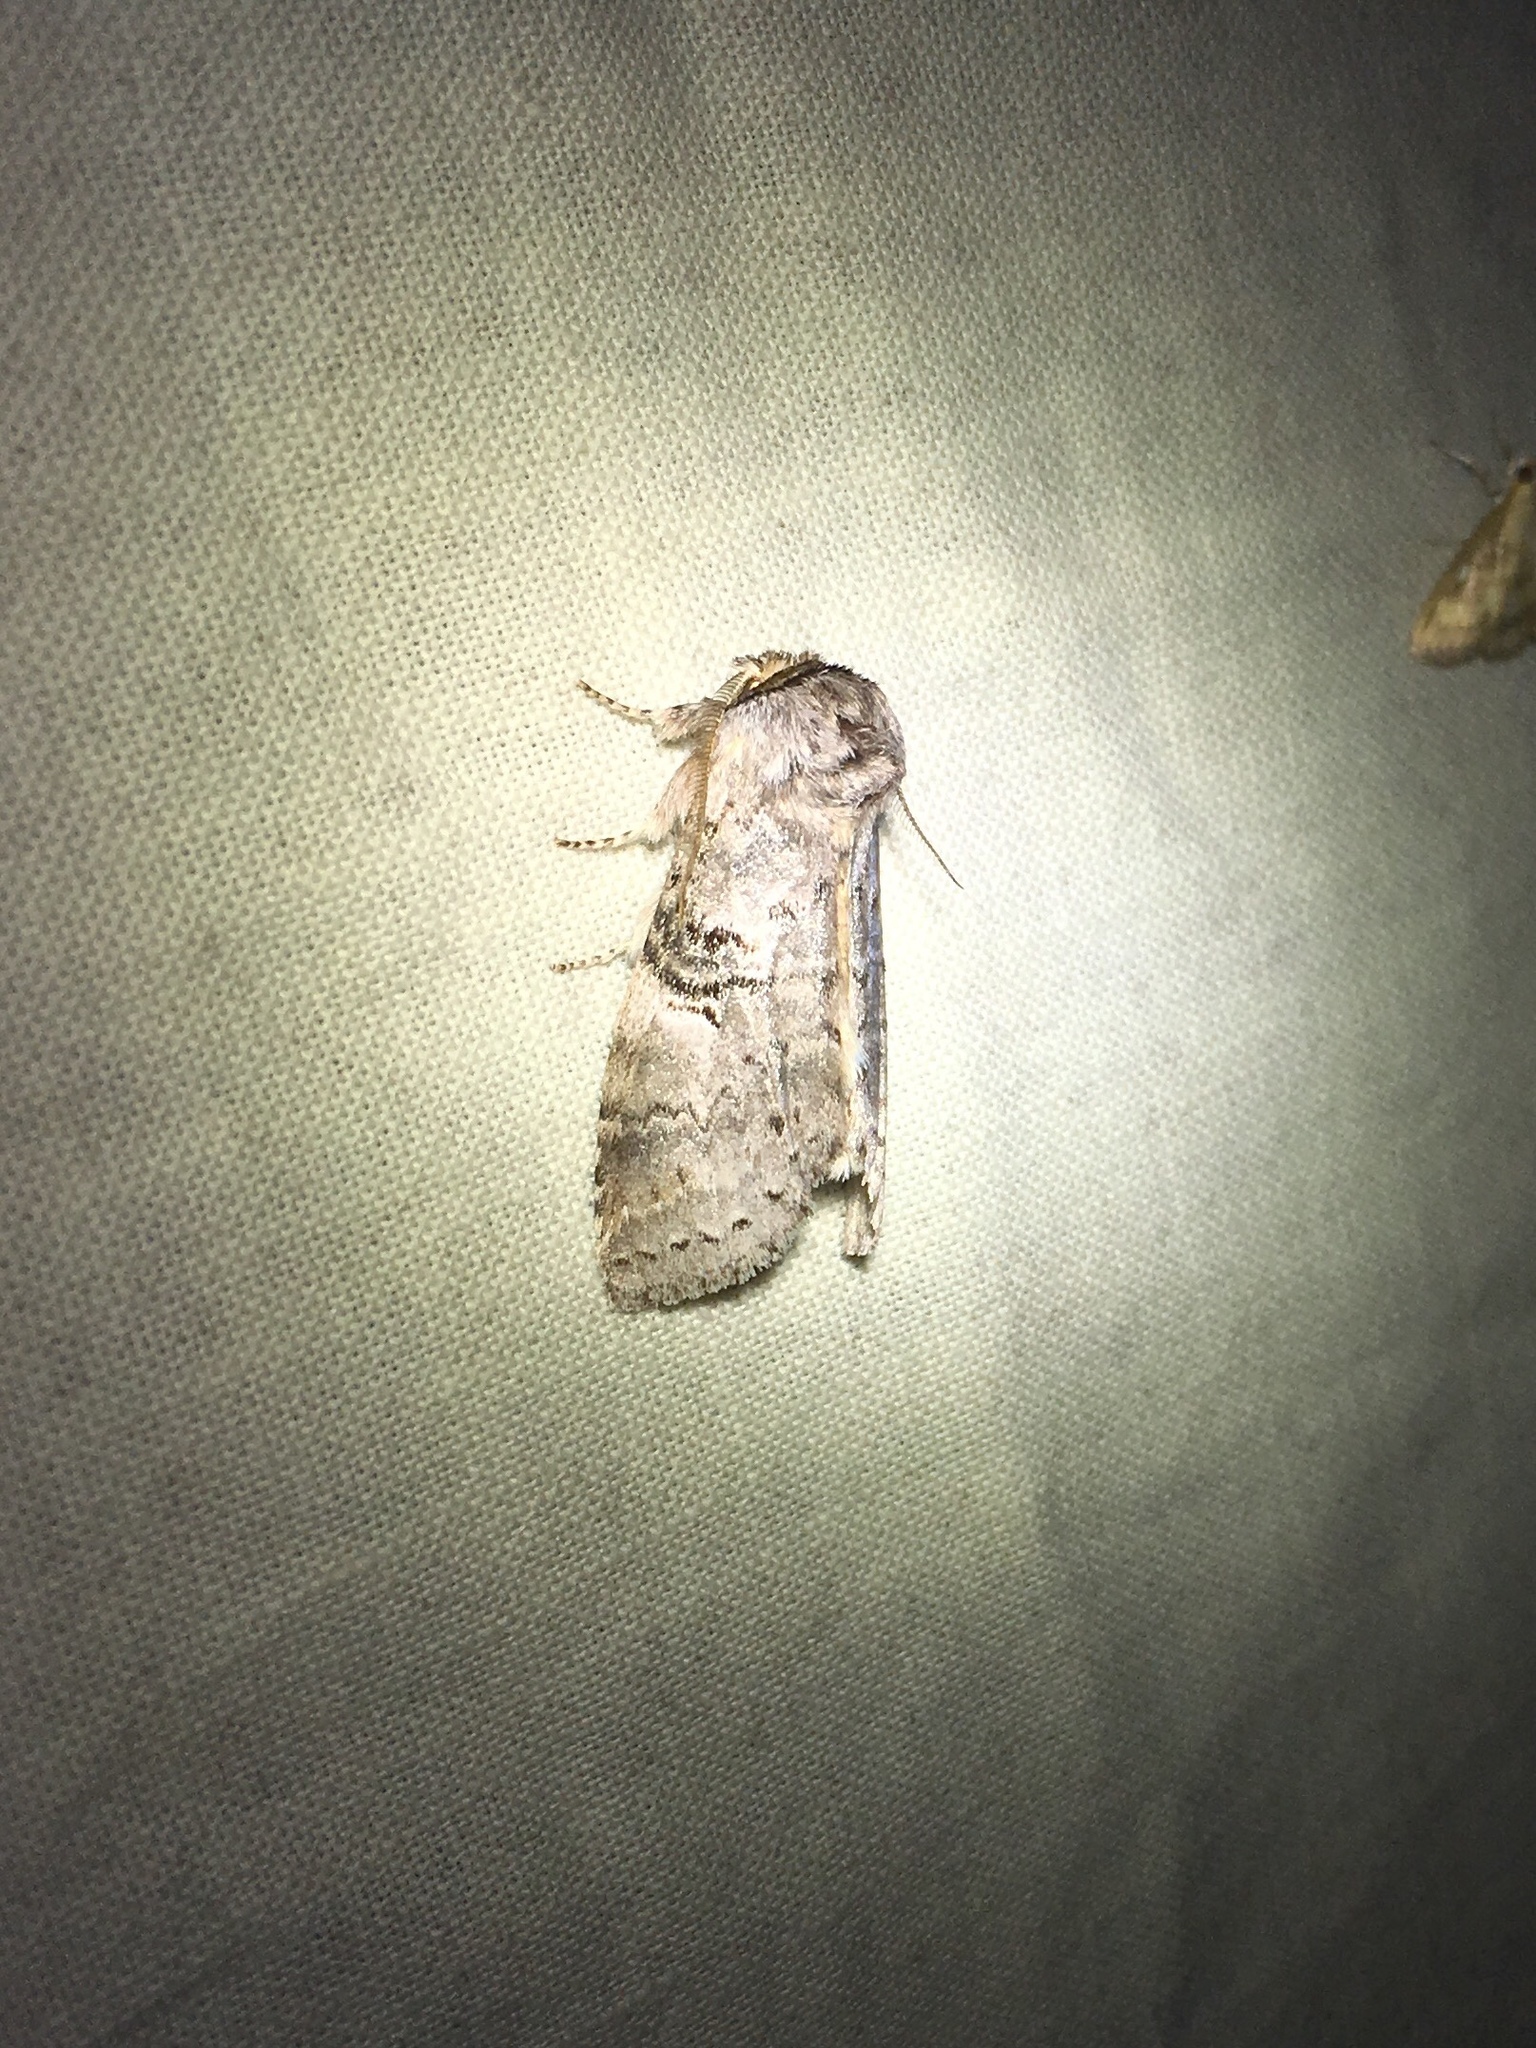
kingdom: Animalia
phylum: Arthropoda
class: Insecta
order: Lepidoptera
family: Notodontidae
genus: Ellida
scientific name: Ellida caniplaga
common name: Linden prominent
